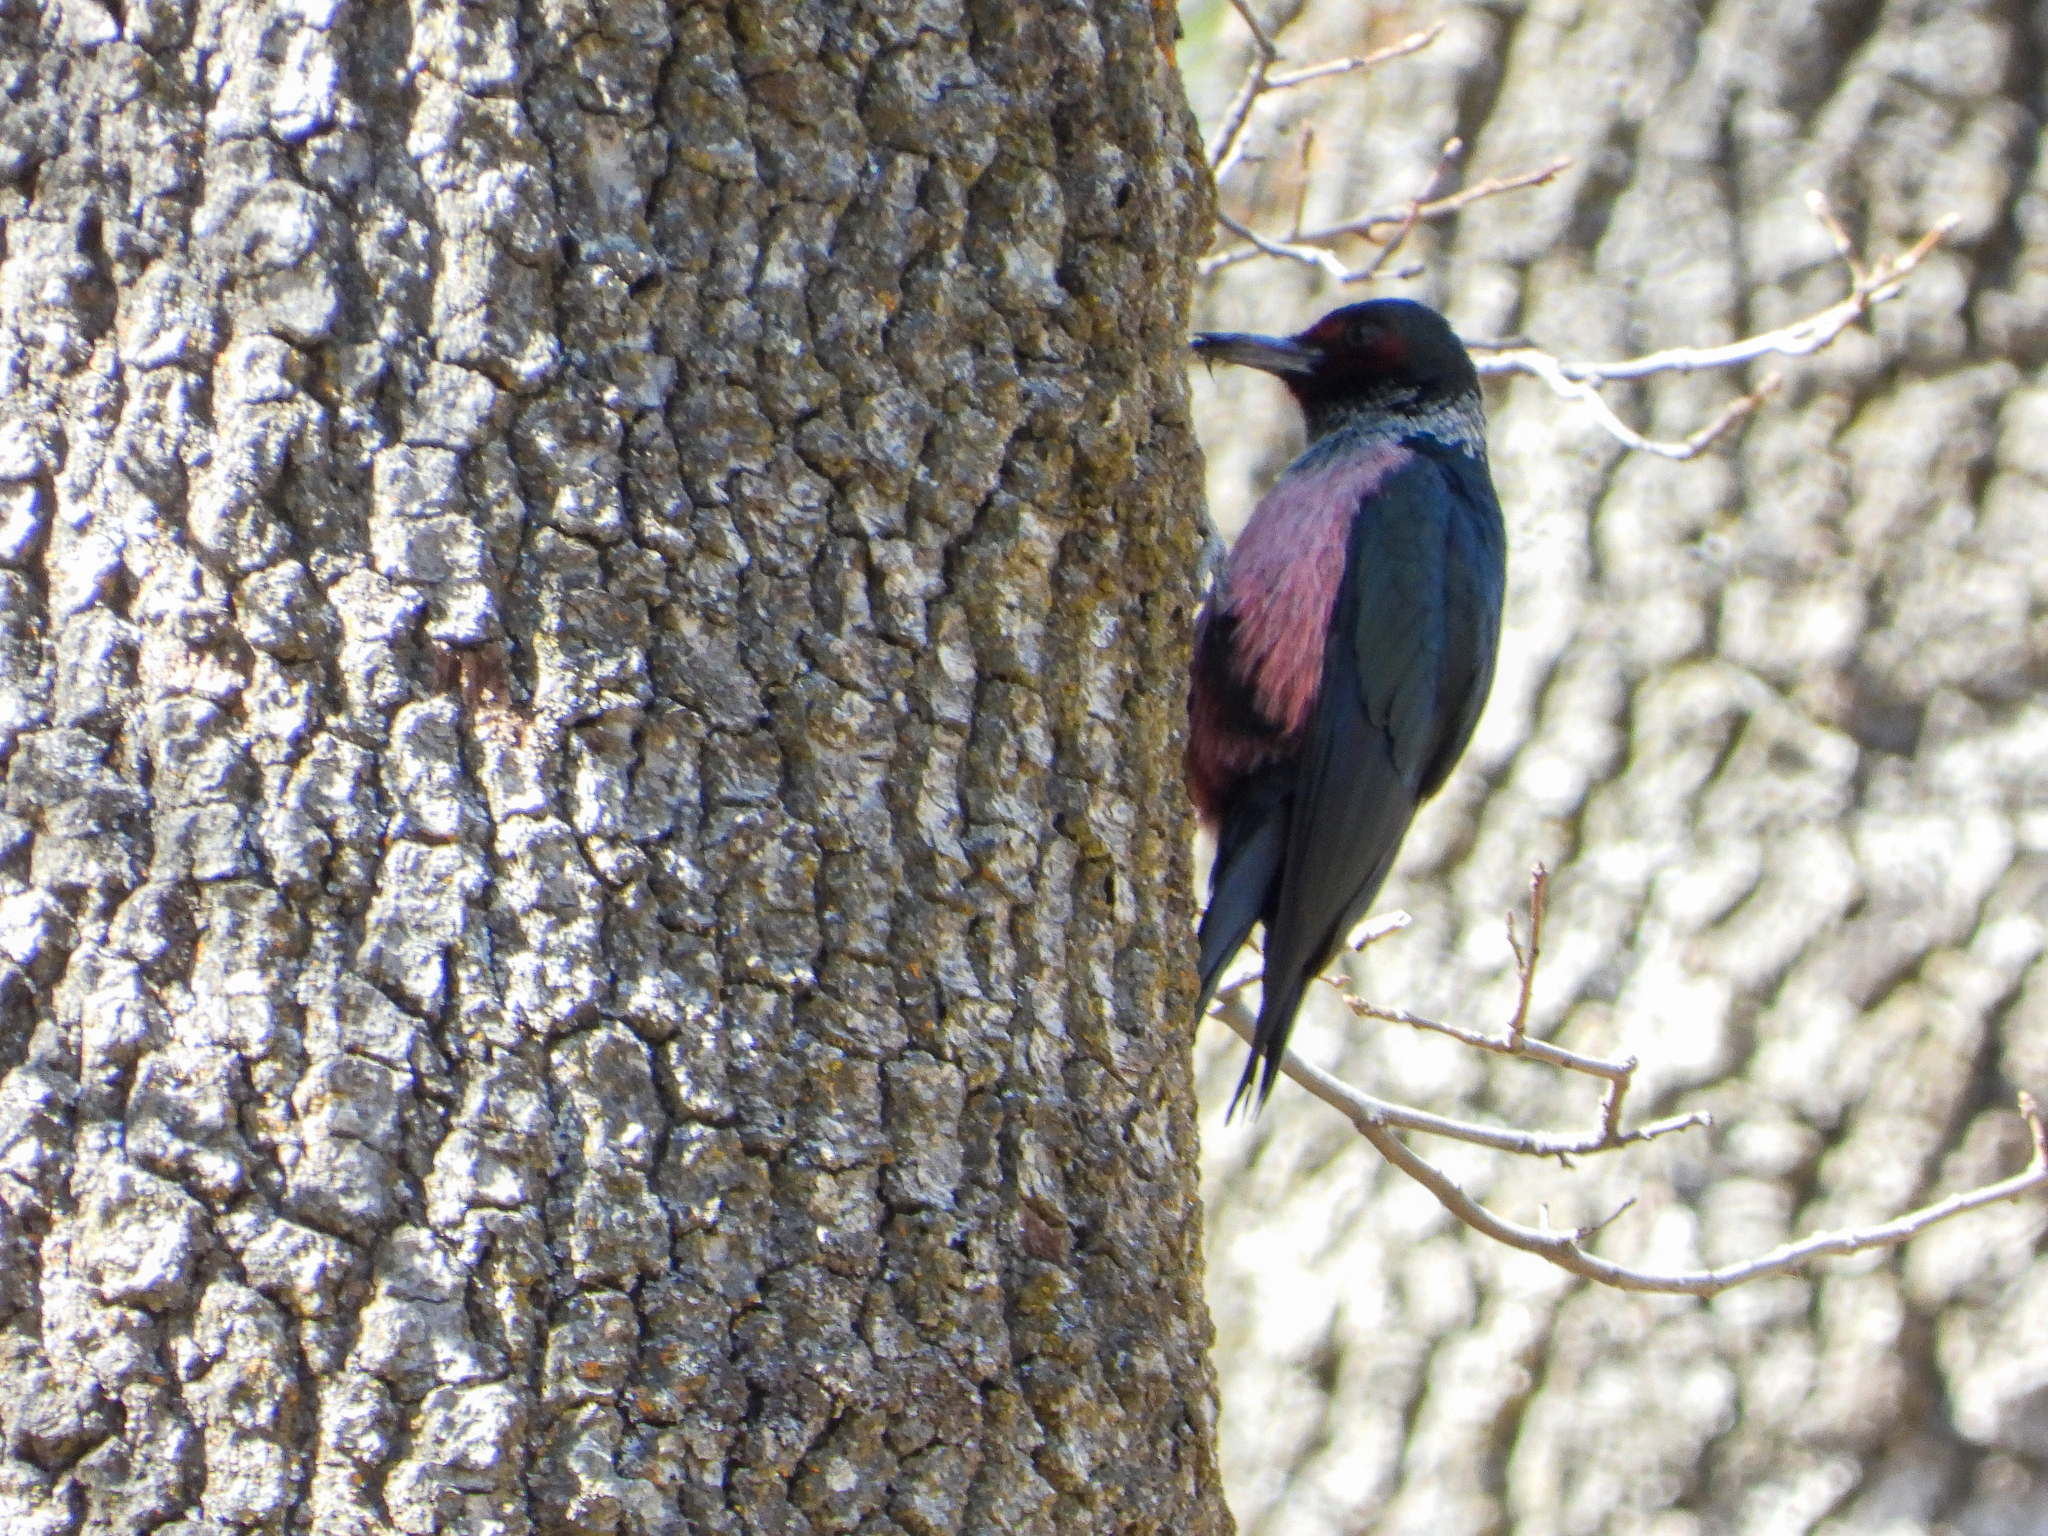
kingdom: Animalia
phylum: Chordata
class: Aves
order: Piciformes
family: Picidae
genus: Melanerpes
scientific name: Melanerpes lewis
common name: Lewis's woodpecker
